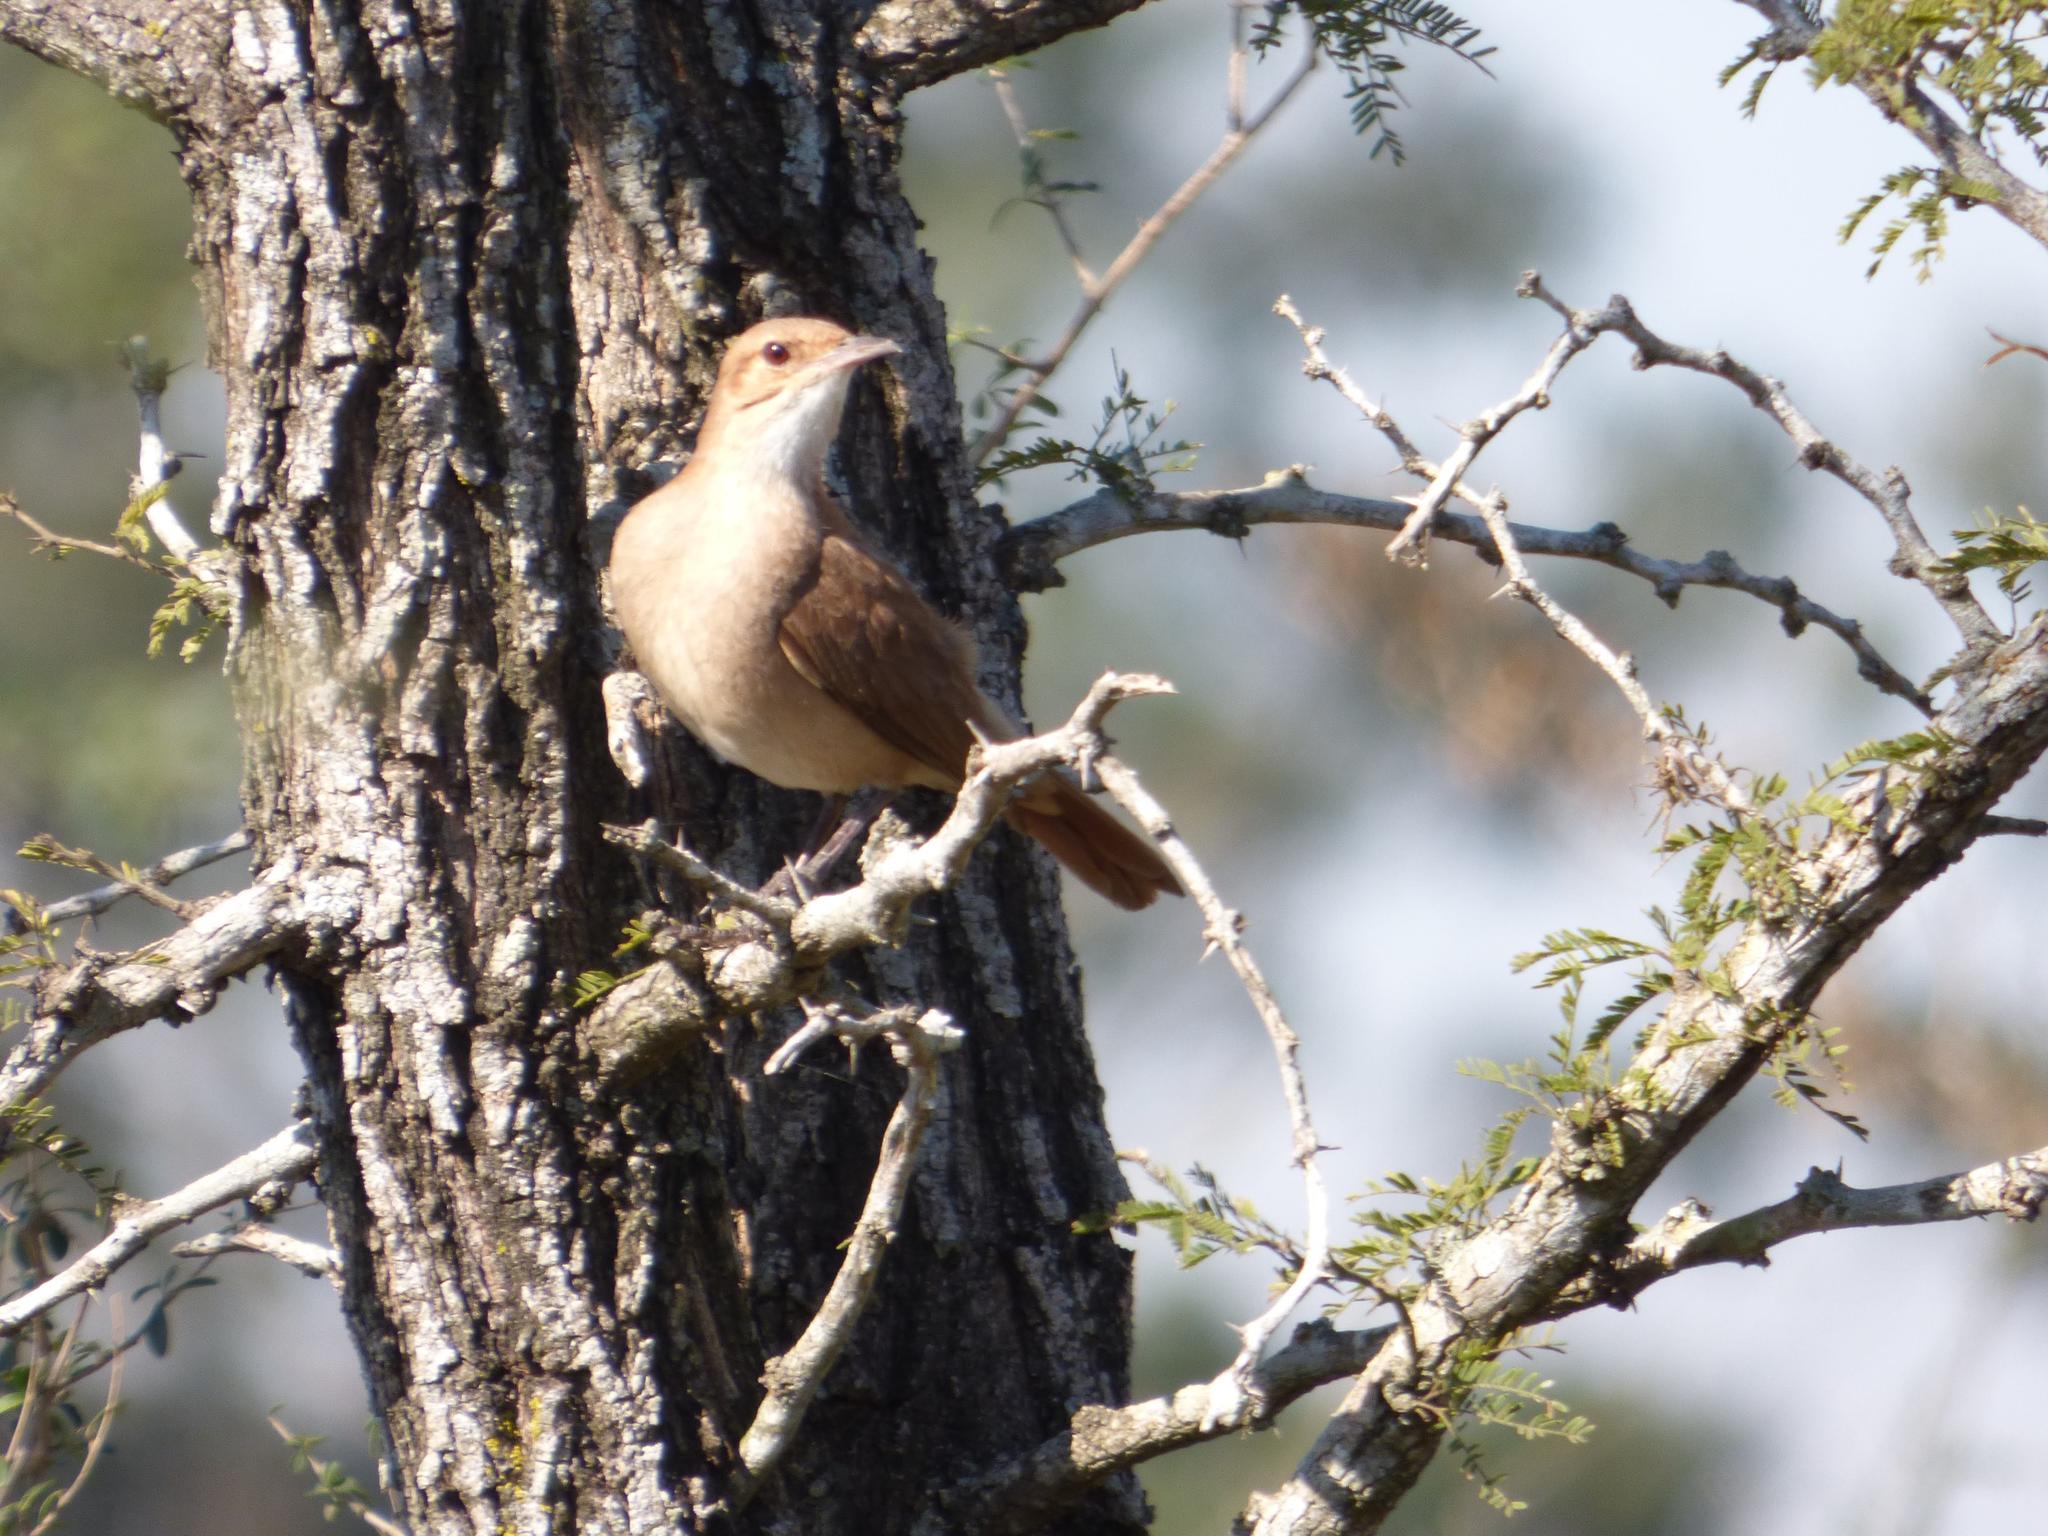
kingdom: Animalia
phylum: Chordata
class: Aves
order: Passeriformes
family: Furnariidae
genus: Furnarius
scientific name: Furnarius rufus
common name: Rufous hornero
